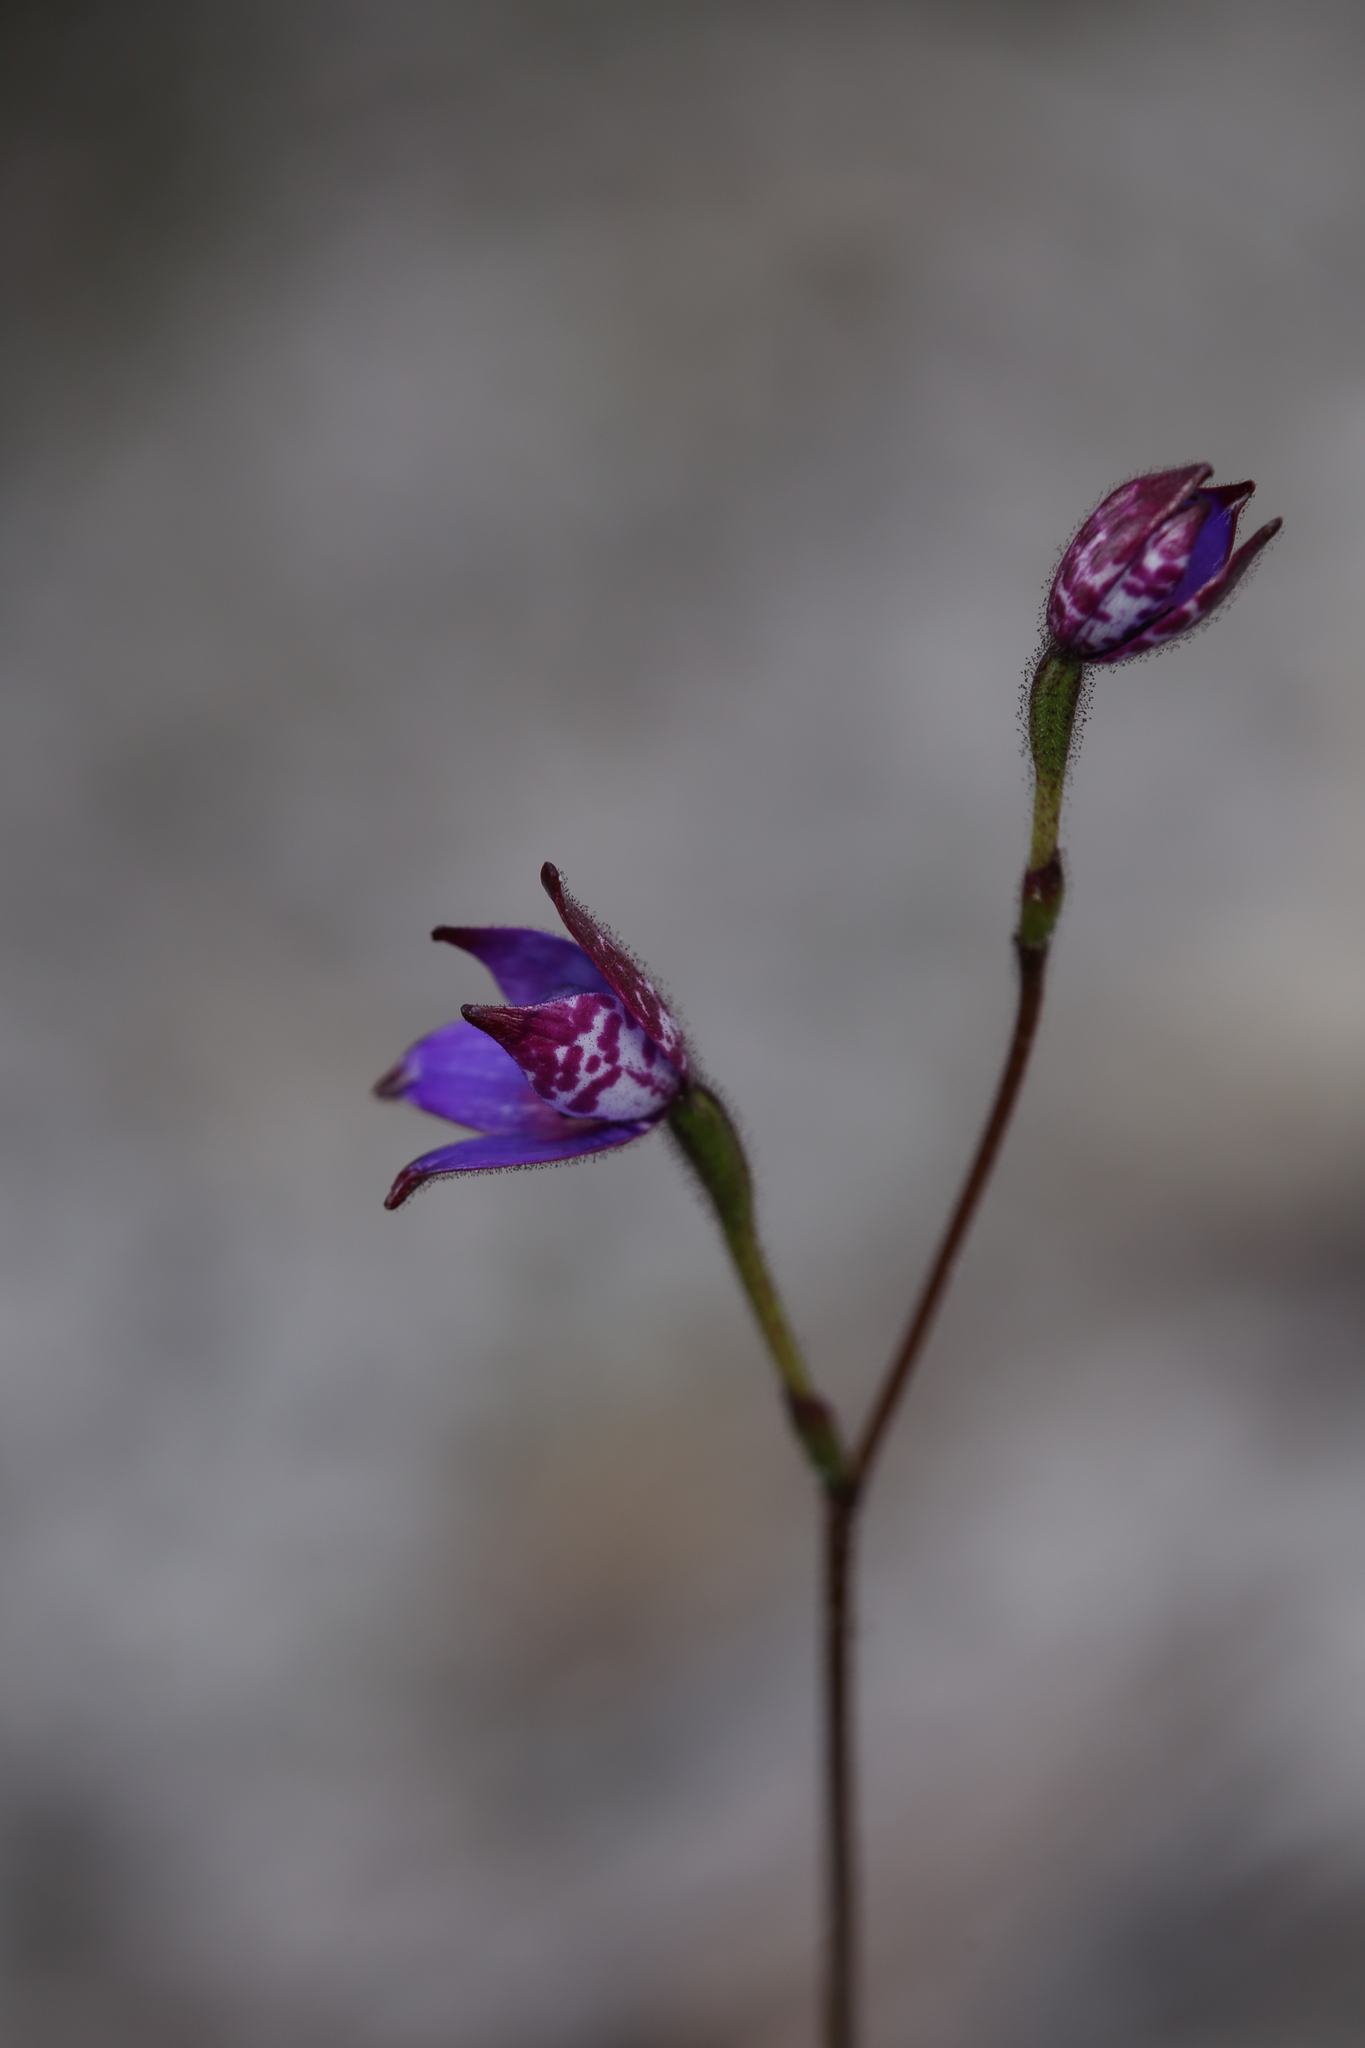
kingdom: Plantae
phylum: Tracheophyta
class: Liliopsida
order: Asparagales
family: Orchidaceae
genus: Caladenia
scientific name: Caladenia brunonis
